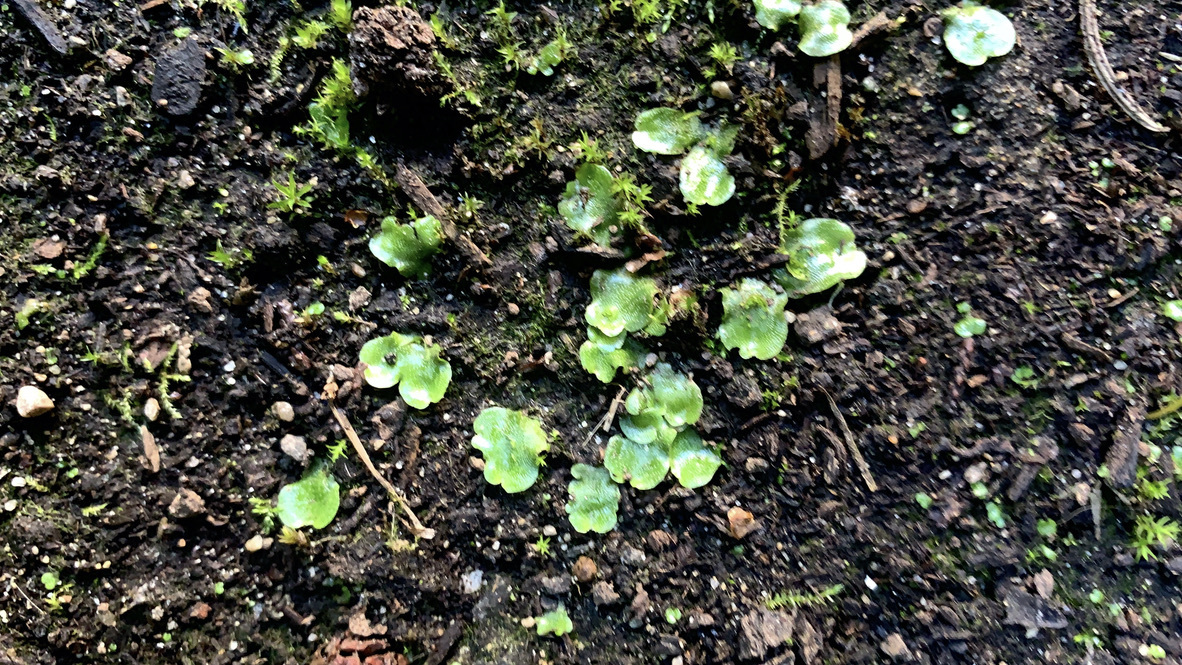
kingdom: Plantae
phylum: Marchantiophyta
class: Marchantiopsida
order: Lunulariales
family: Lunulariaceae
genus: Lunularia
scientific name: Lunularia cruciata
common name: Crescent-cup liverwort
